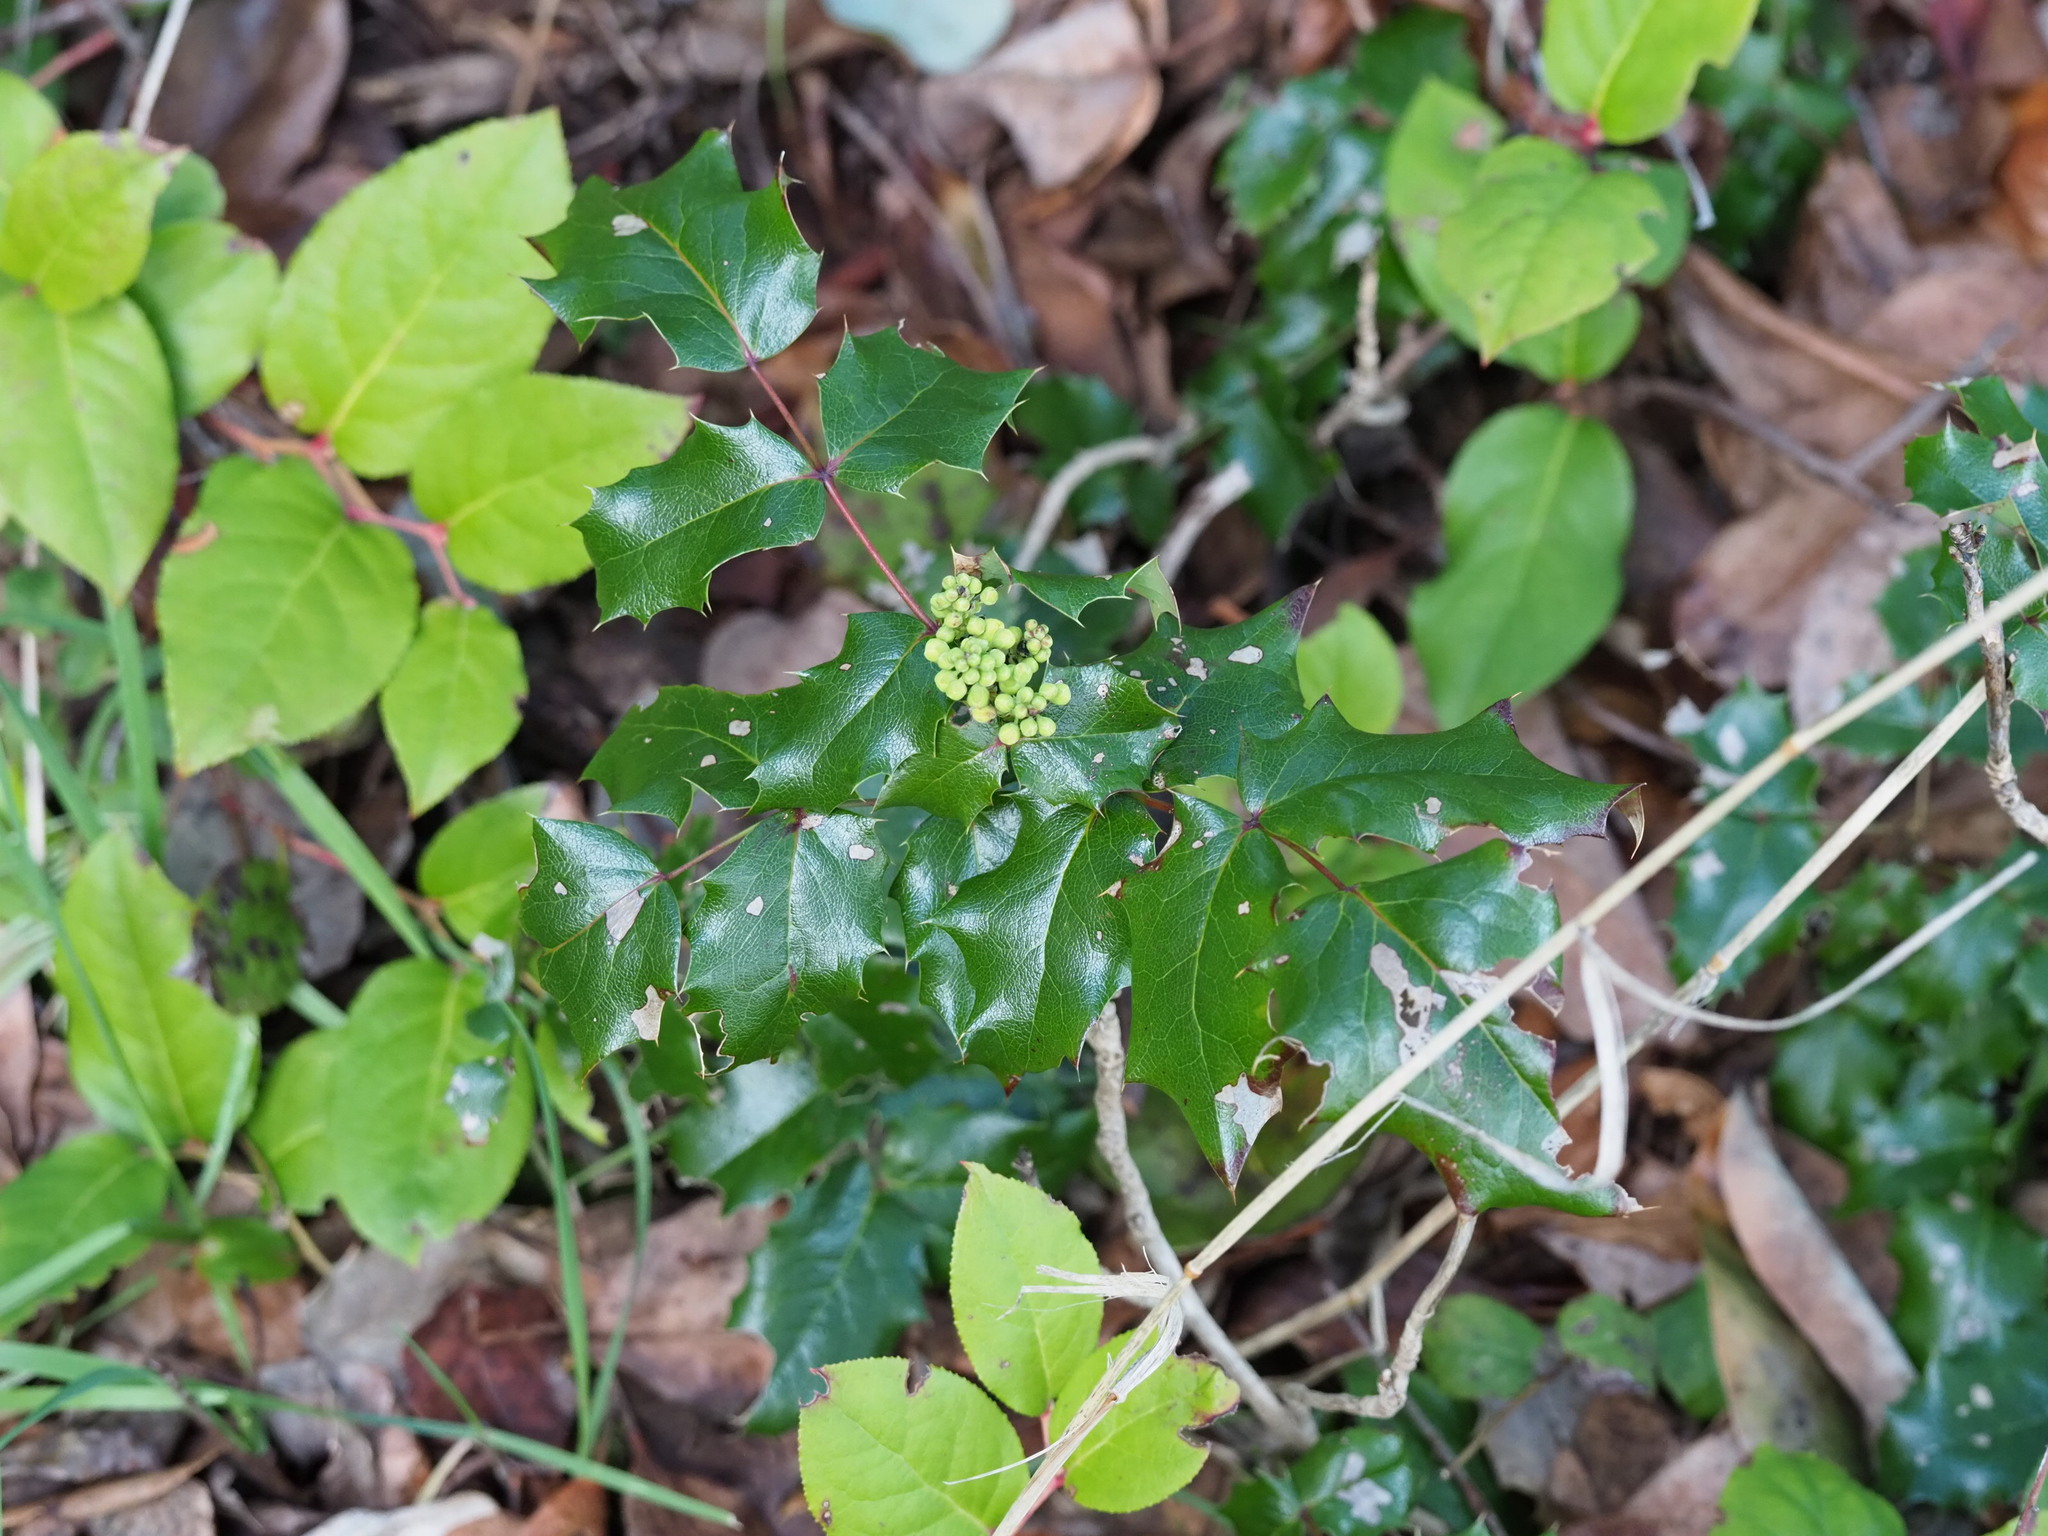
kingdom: Plantae
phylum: Tracheophyta
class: Magnoliopsida
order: Ranunculales
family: Berberidaceae
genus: Mahonia
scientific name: Mahonia aquifolium
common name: Oregon-grape
